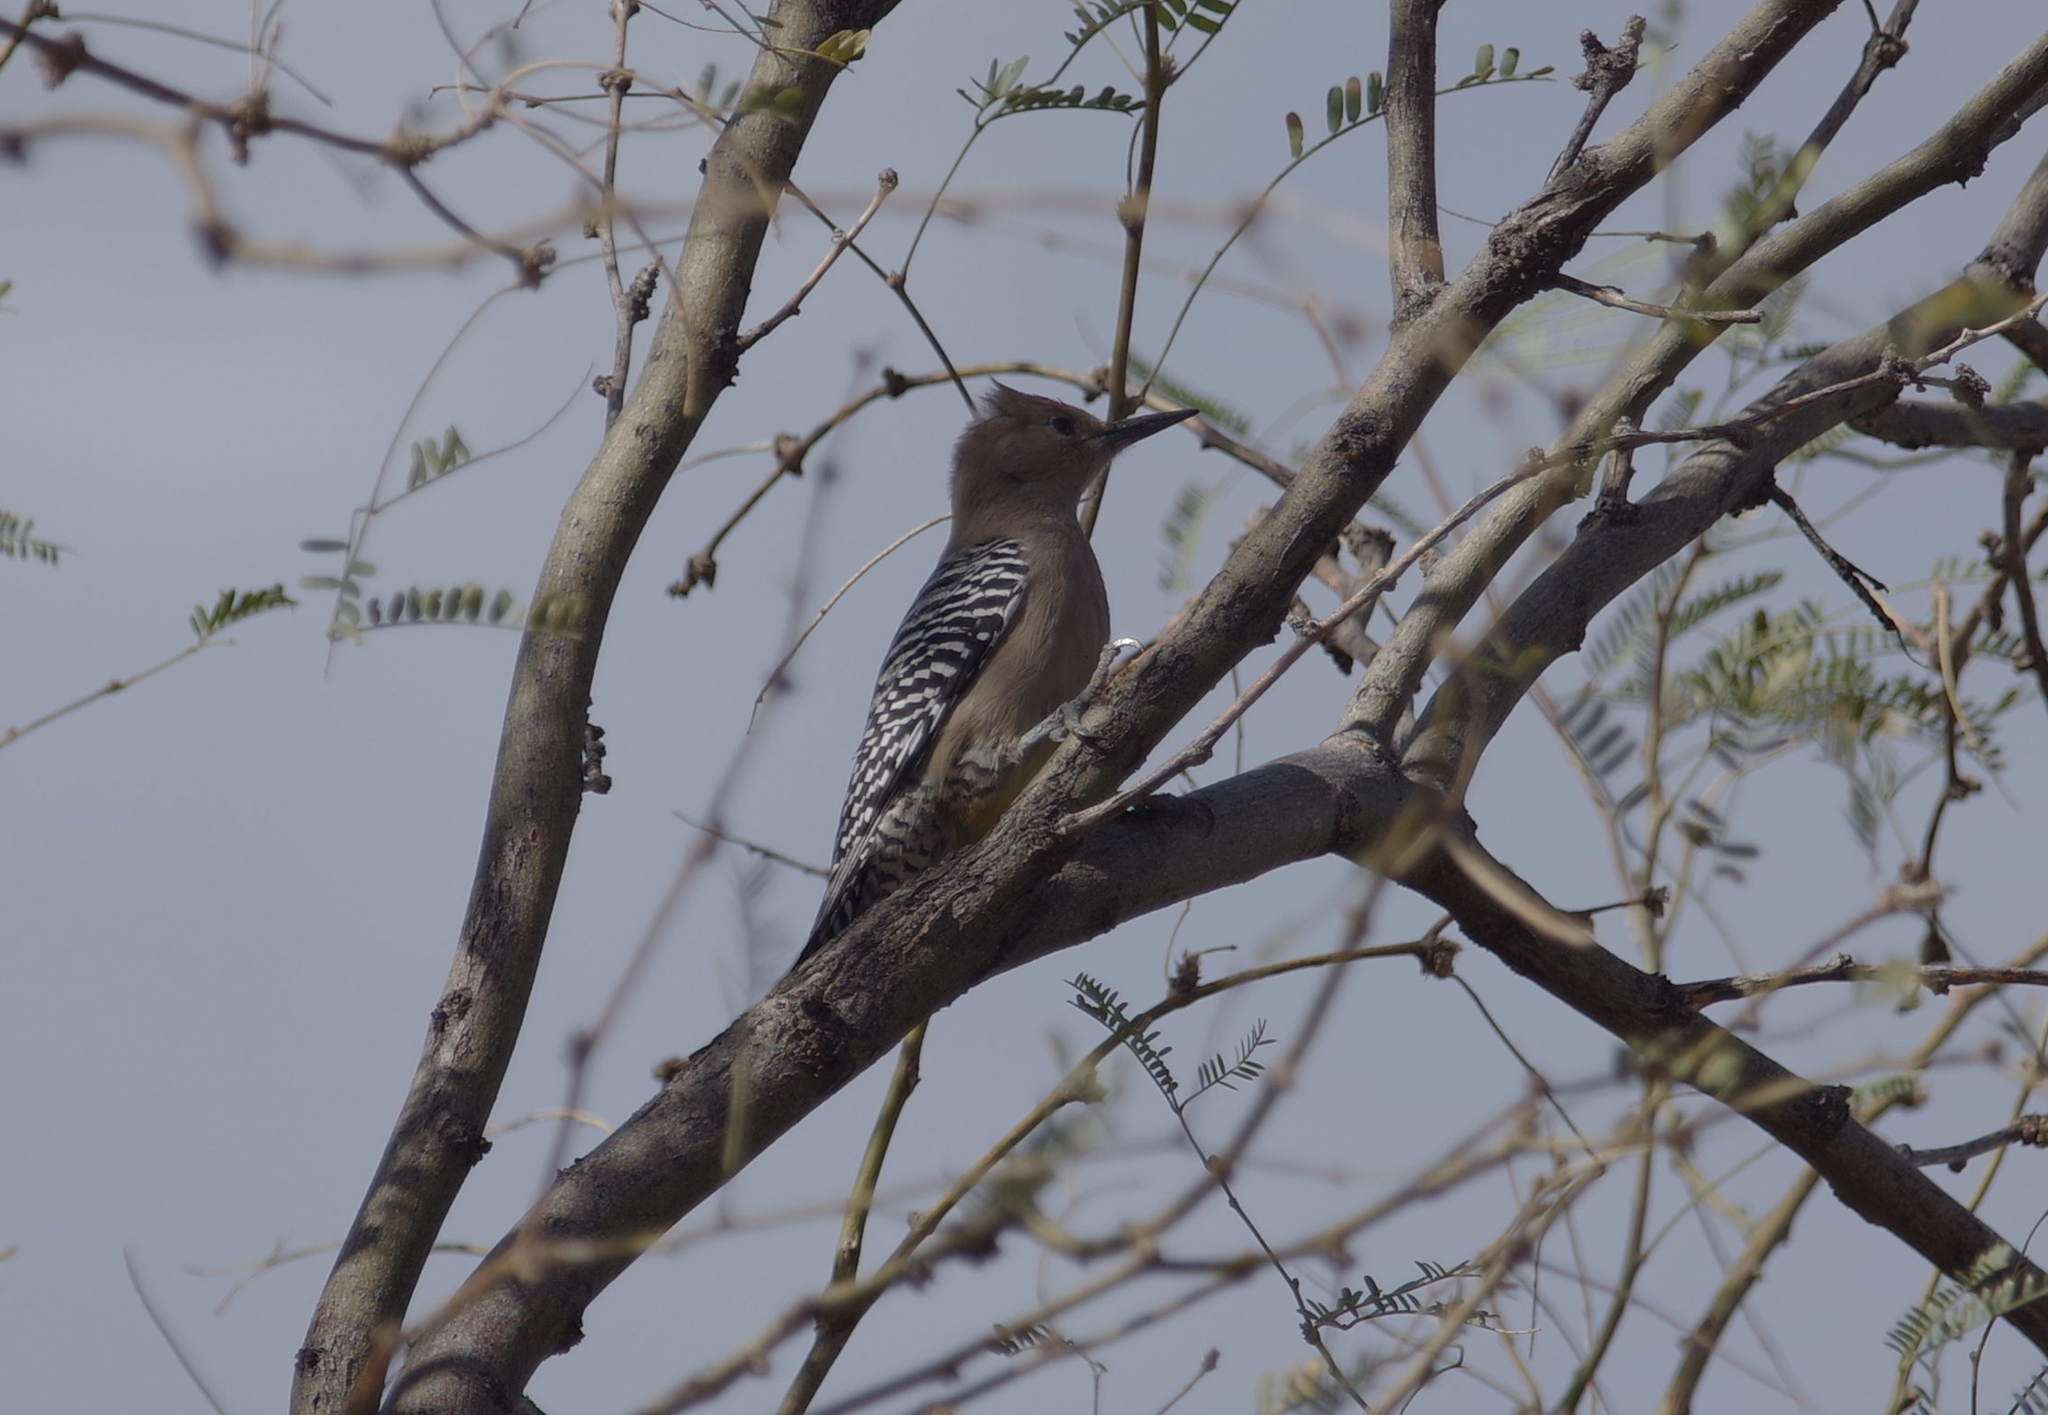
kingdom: Animalia
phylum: Chordata
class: Aves
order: Piciformes
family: Picidae
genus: Melanerpes
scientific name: Melanerpes uropygialis
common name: Gila woodpecker
